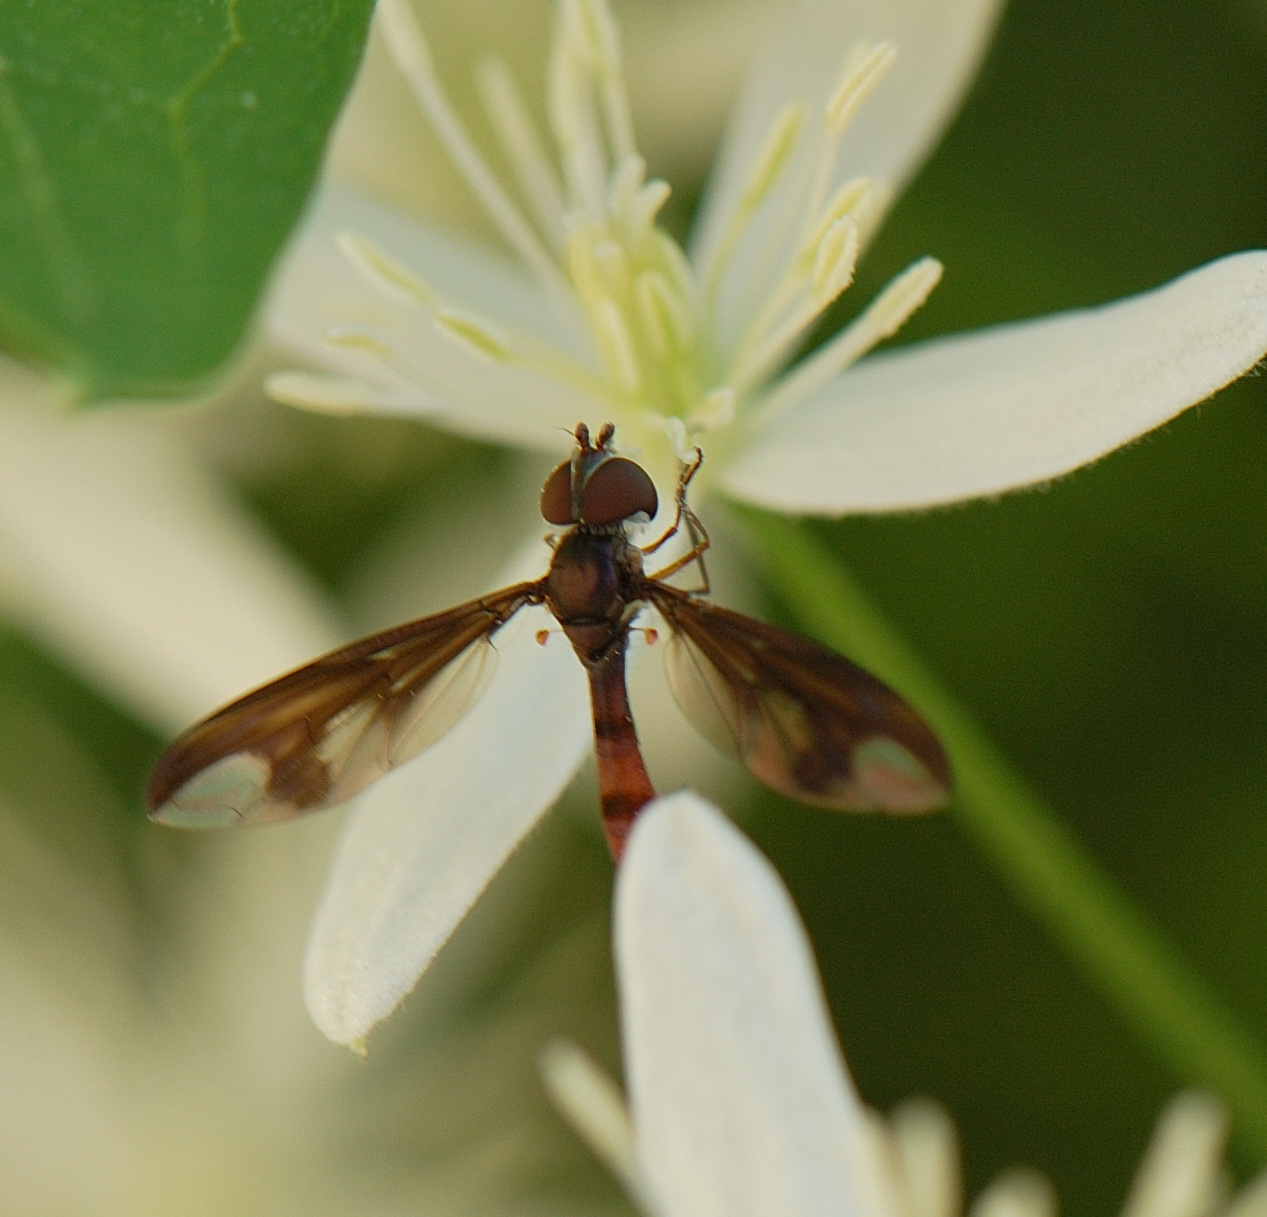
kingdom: Animalia
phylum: Arthropoda
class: Insecta
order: Diptera
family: Syrphidae
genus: Ocyptamus
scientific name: Ocyptamus fuscipennis
